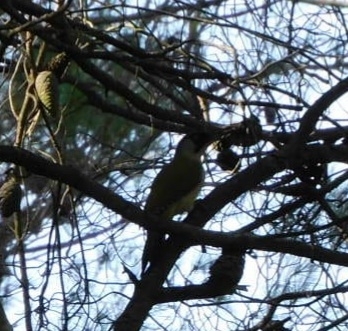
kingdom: Animalia
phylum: Chordata
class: Aves
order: Piciformes
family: Picidae
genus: Picus
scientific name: Picus viridis
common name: European green woodpecker
